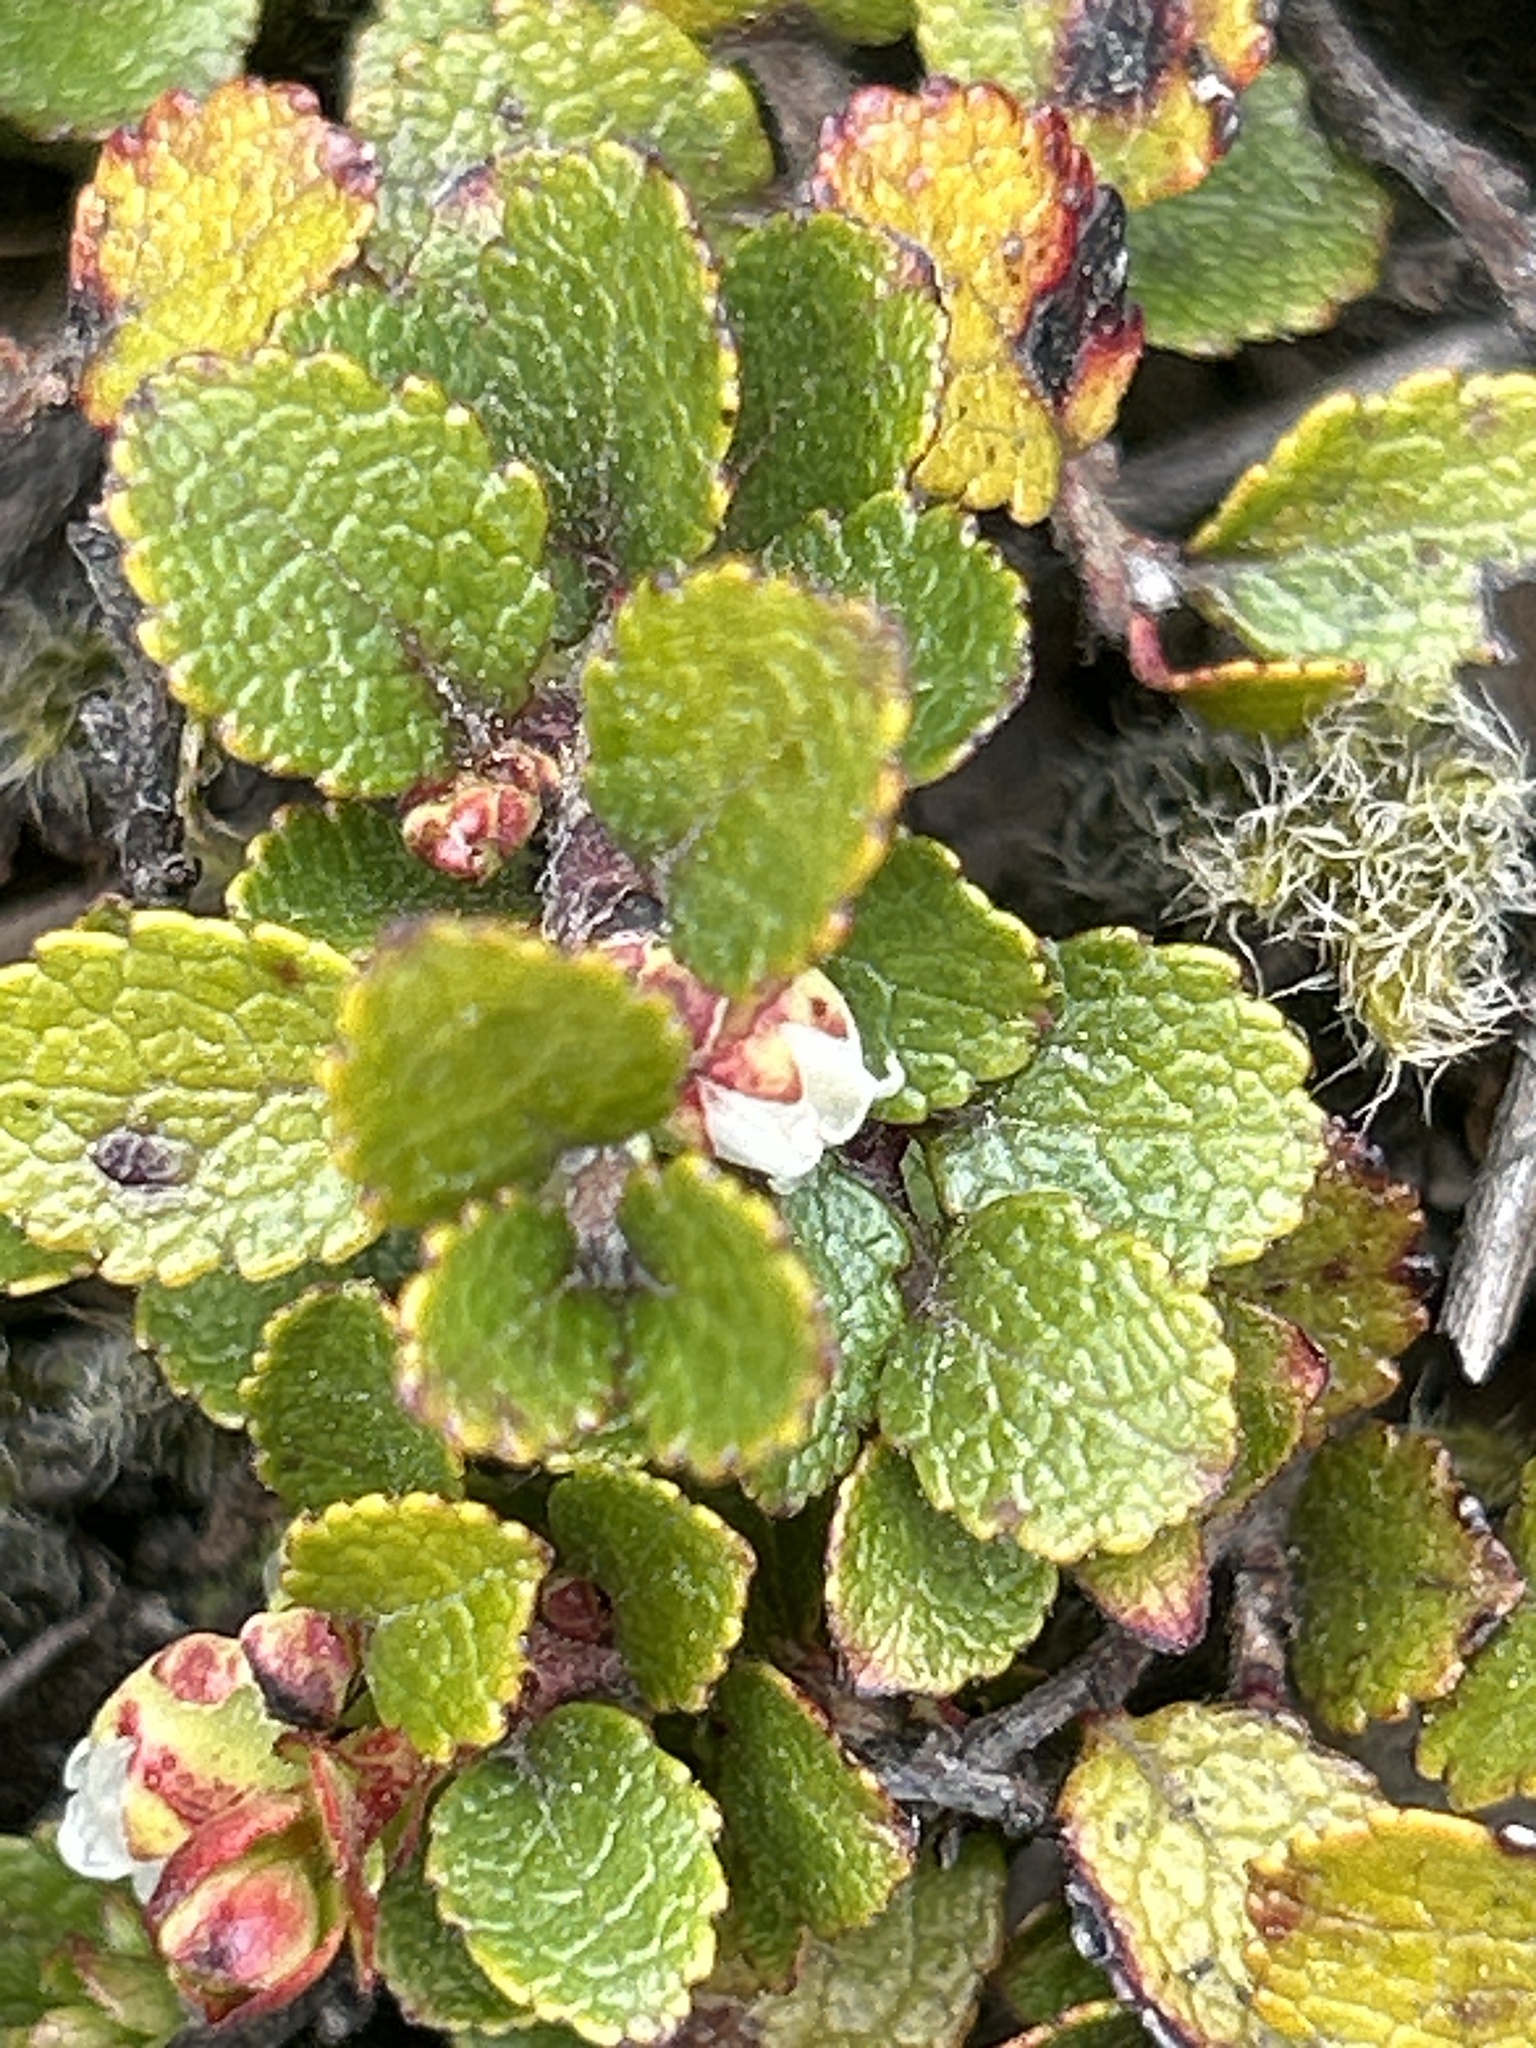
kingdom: Plantae
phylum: Tracheophyta
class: Magnoliopsida
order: Ericales
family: Ericaceae
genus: Gaultheria
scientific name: Gaultheria depressa
